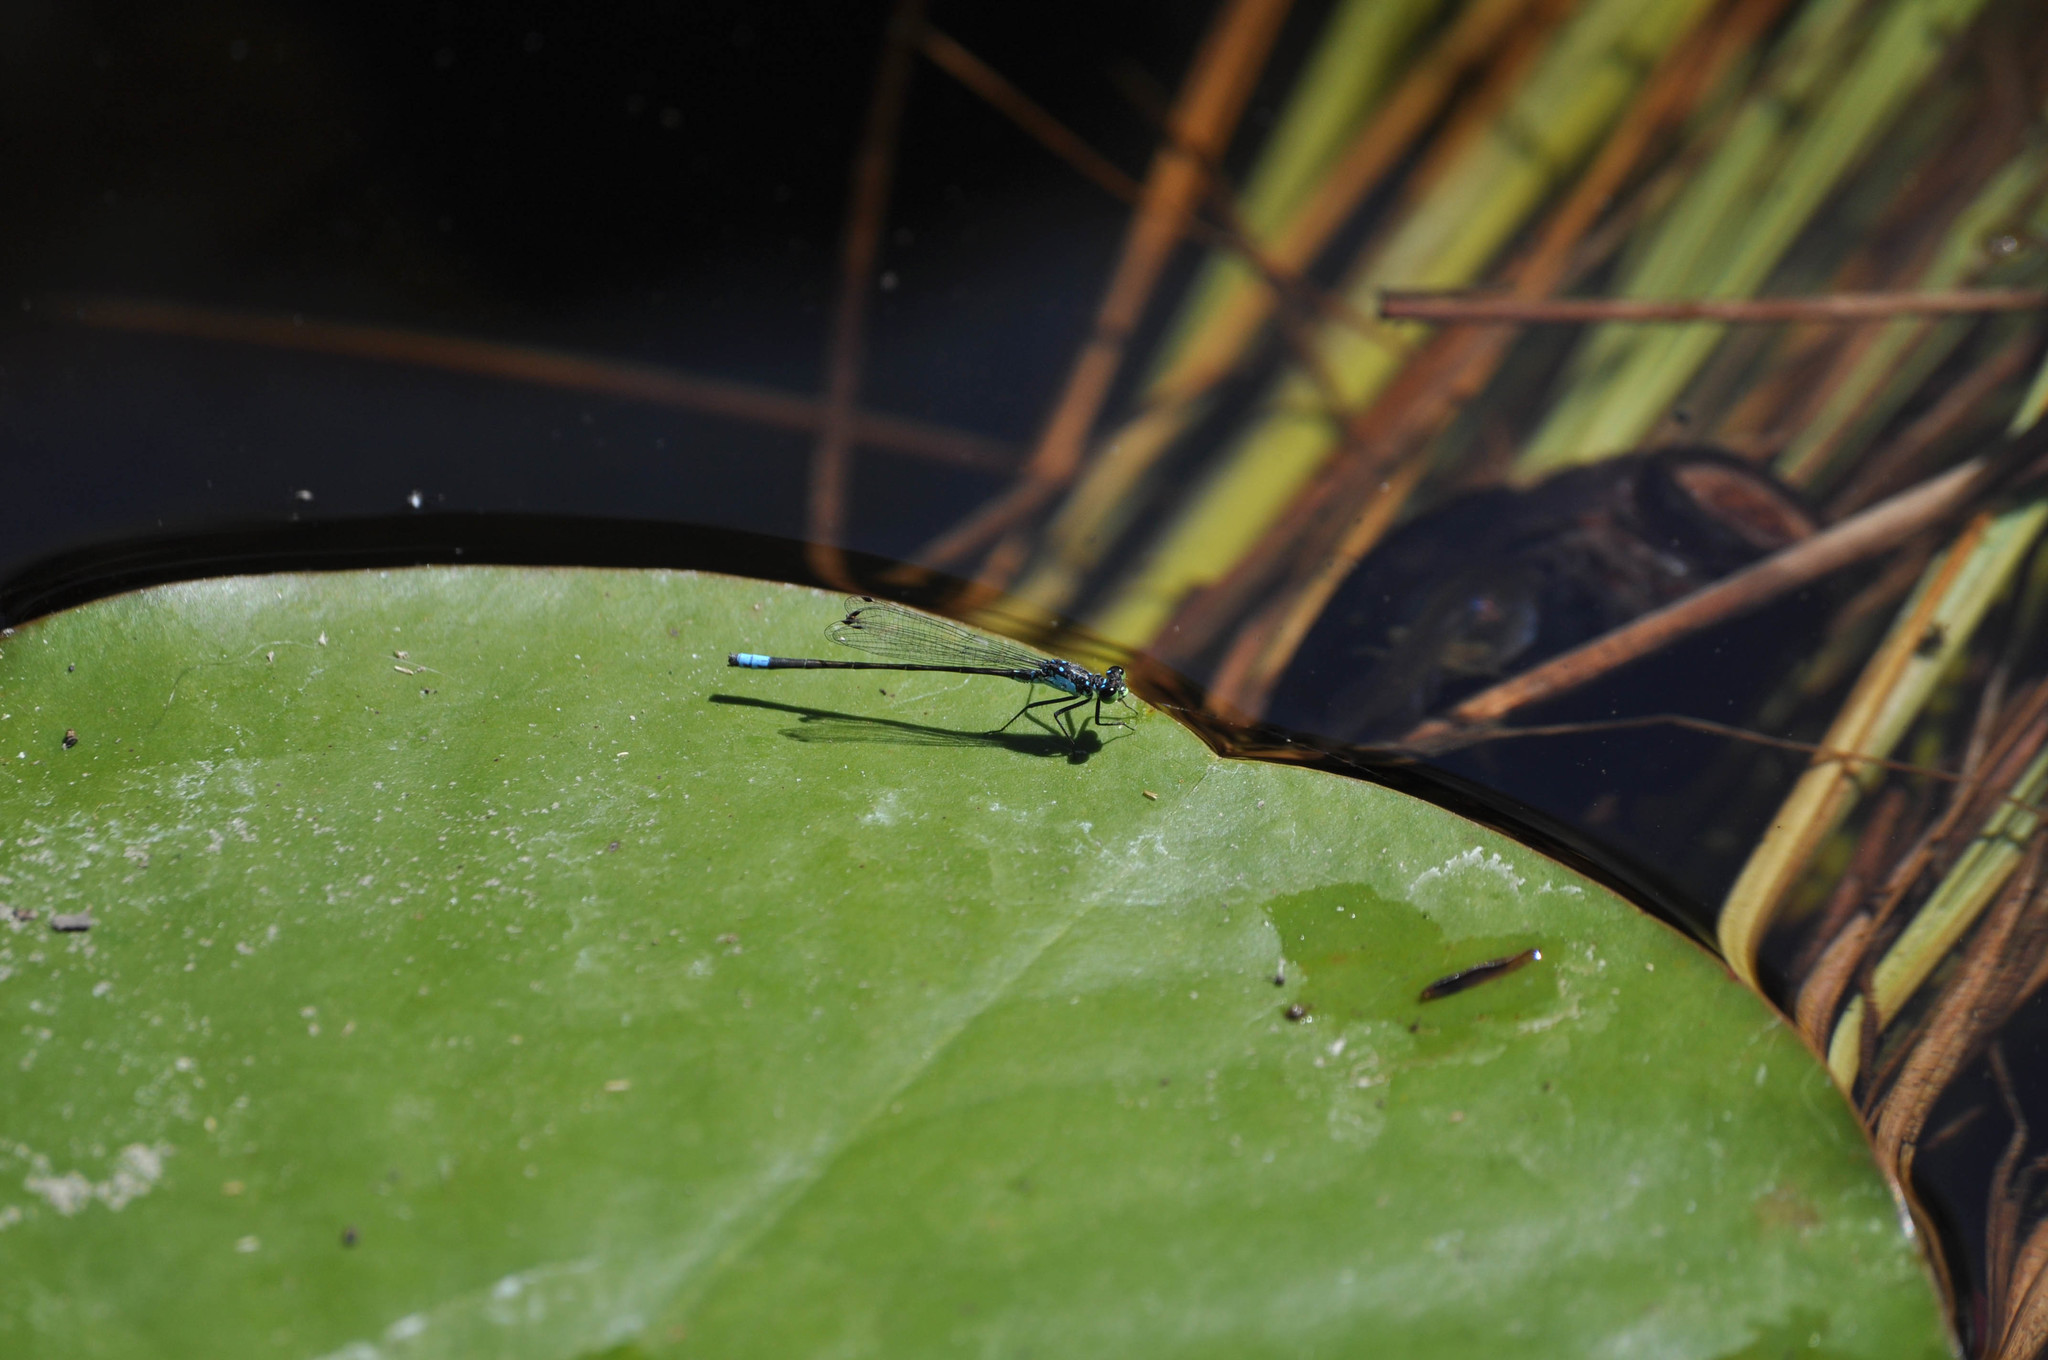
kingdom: Animalia
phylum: Arthropoda
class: Insecta
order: Odonata
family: Coenagrionidae
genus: Ischnura
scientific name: Ischnura cervula
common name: Pacific forktail
